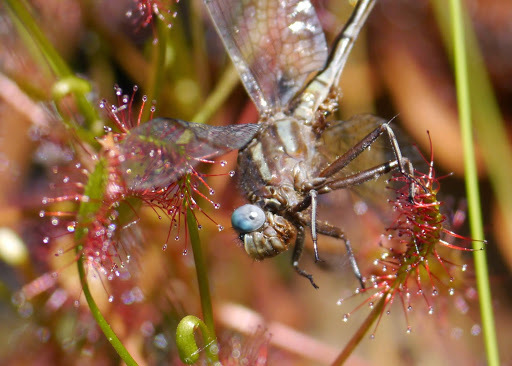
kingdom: Animalia
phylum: Arthropoda
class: Insecta
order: Odonata
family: Gomphidae
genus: Phanogomphus
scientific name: Phanogomphus exilis
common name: Lancet clubtail
